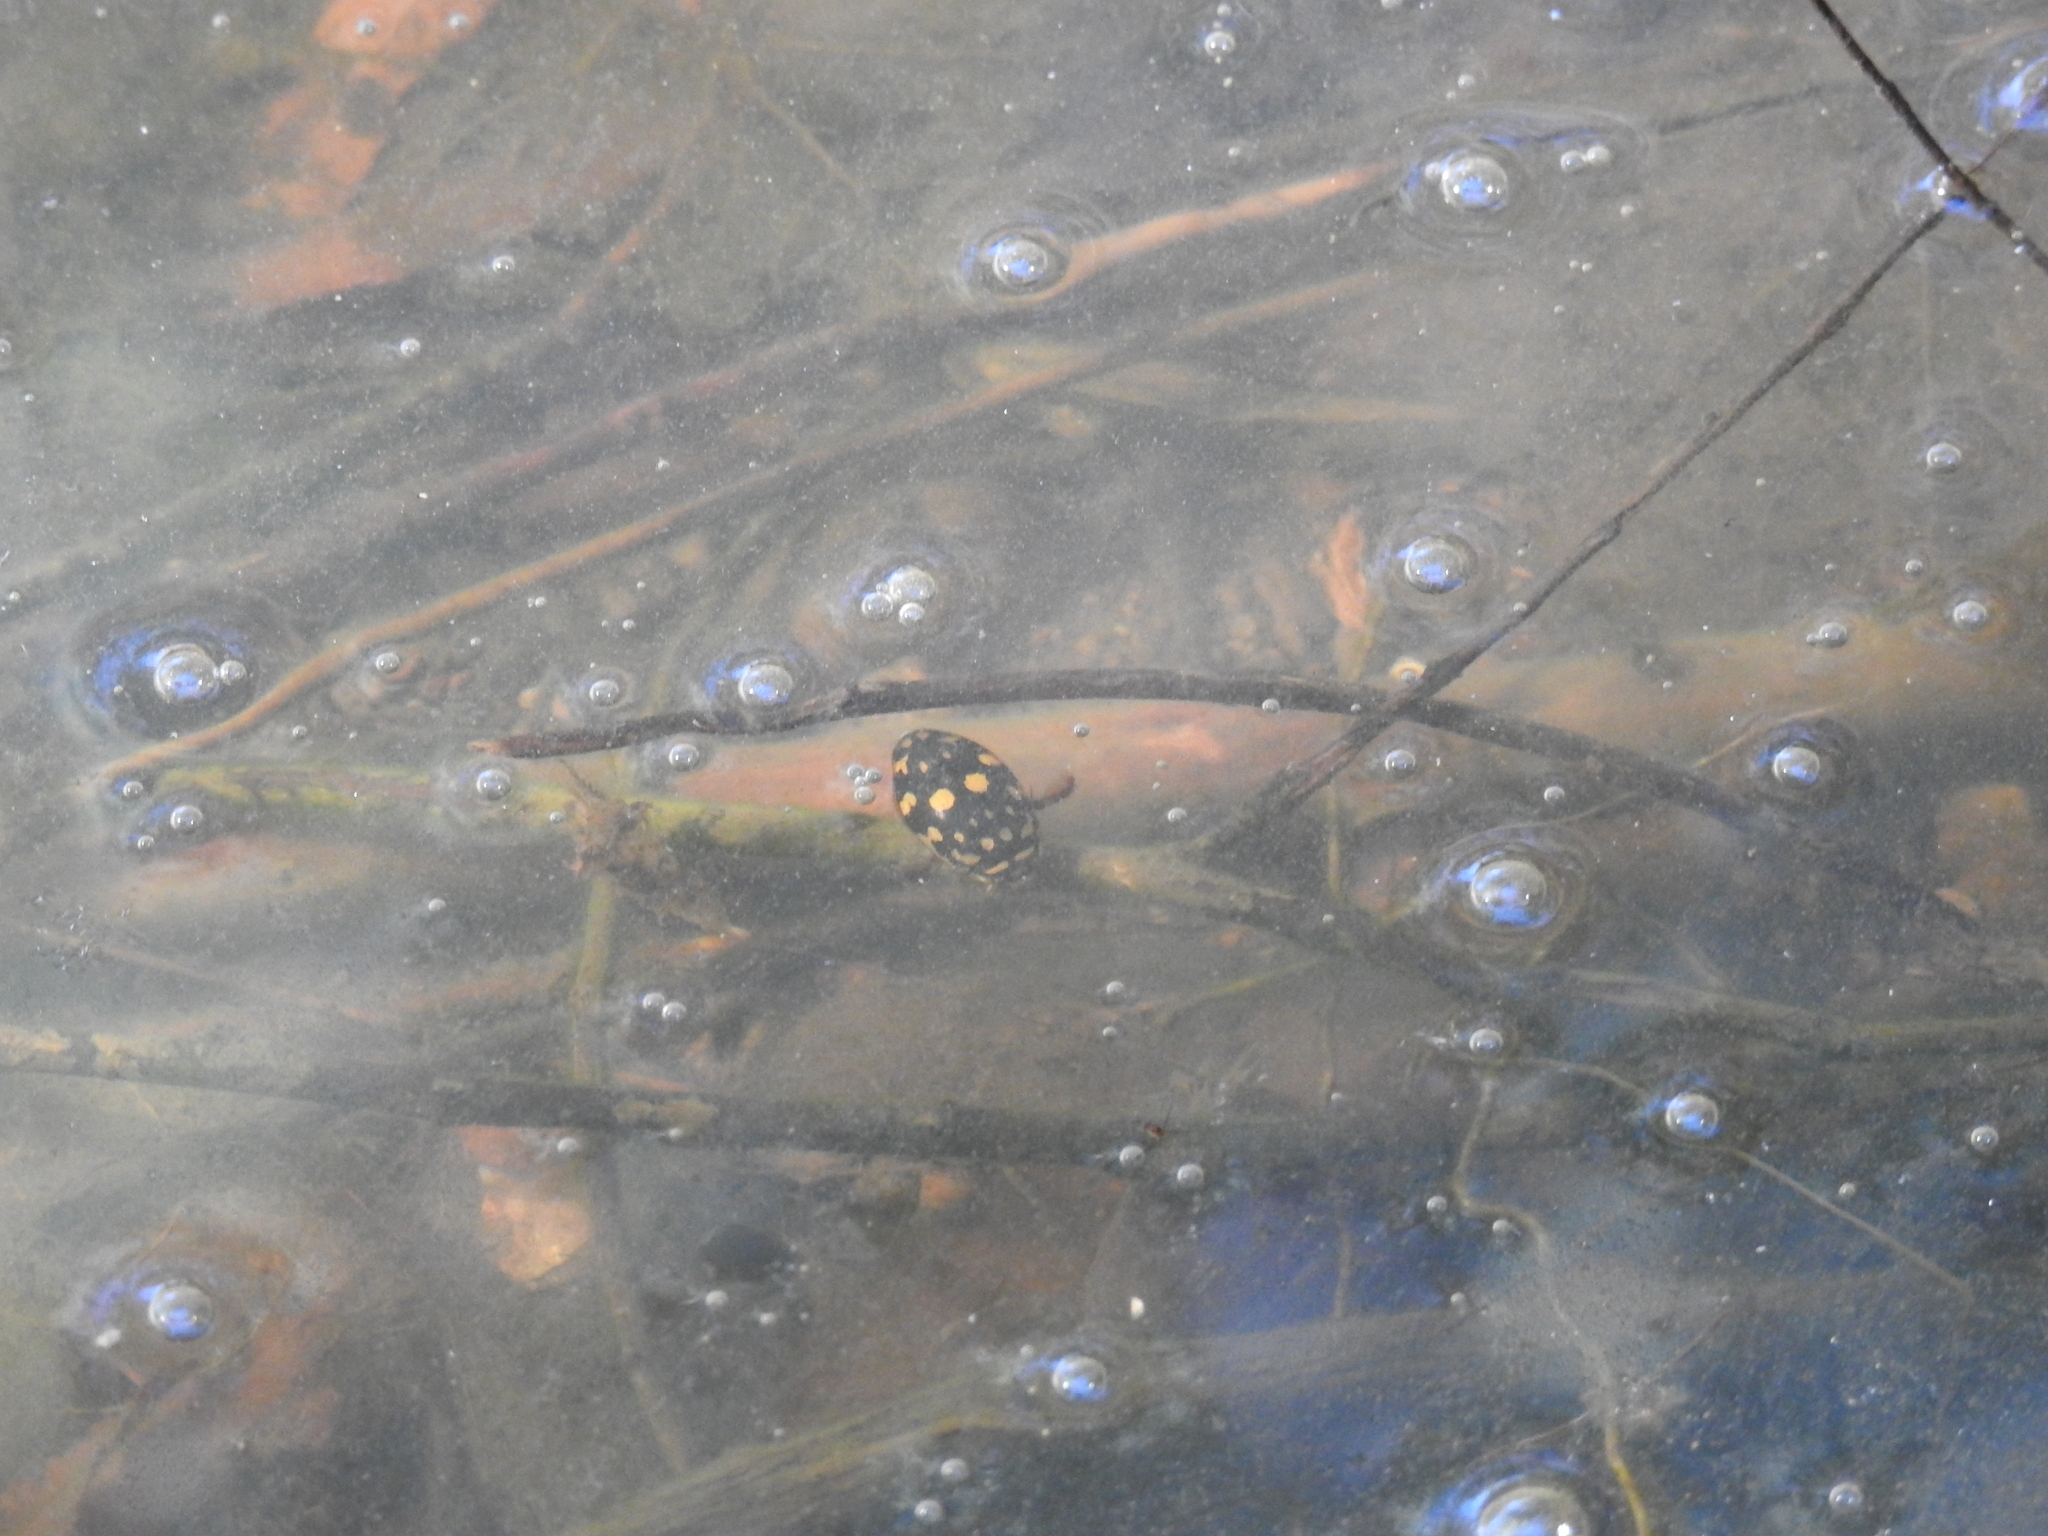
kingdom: Animalia
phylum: Arthropoda
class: Insecta
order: Coleoptera
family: Dytiscidae
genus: Thermonectus
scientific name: Thermonectus marmoratus
